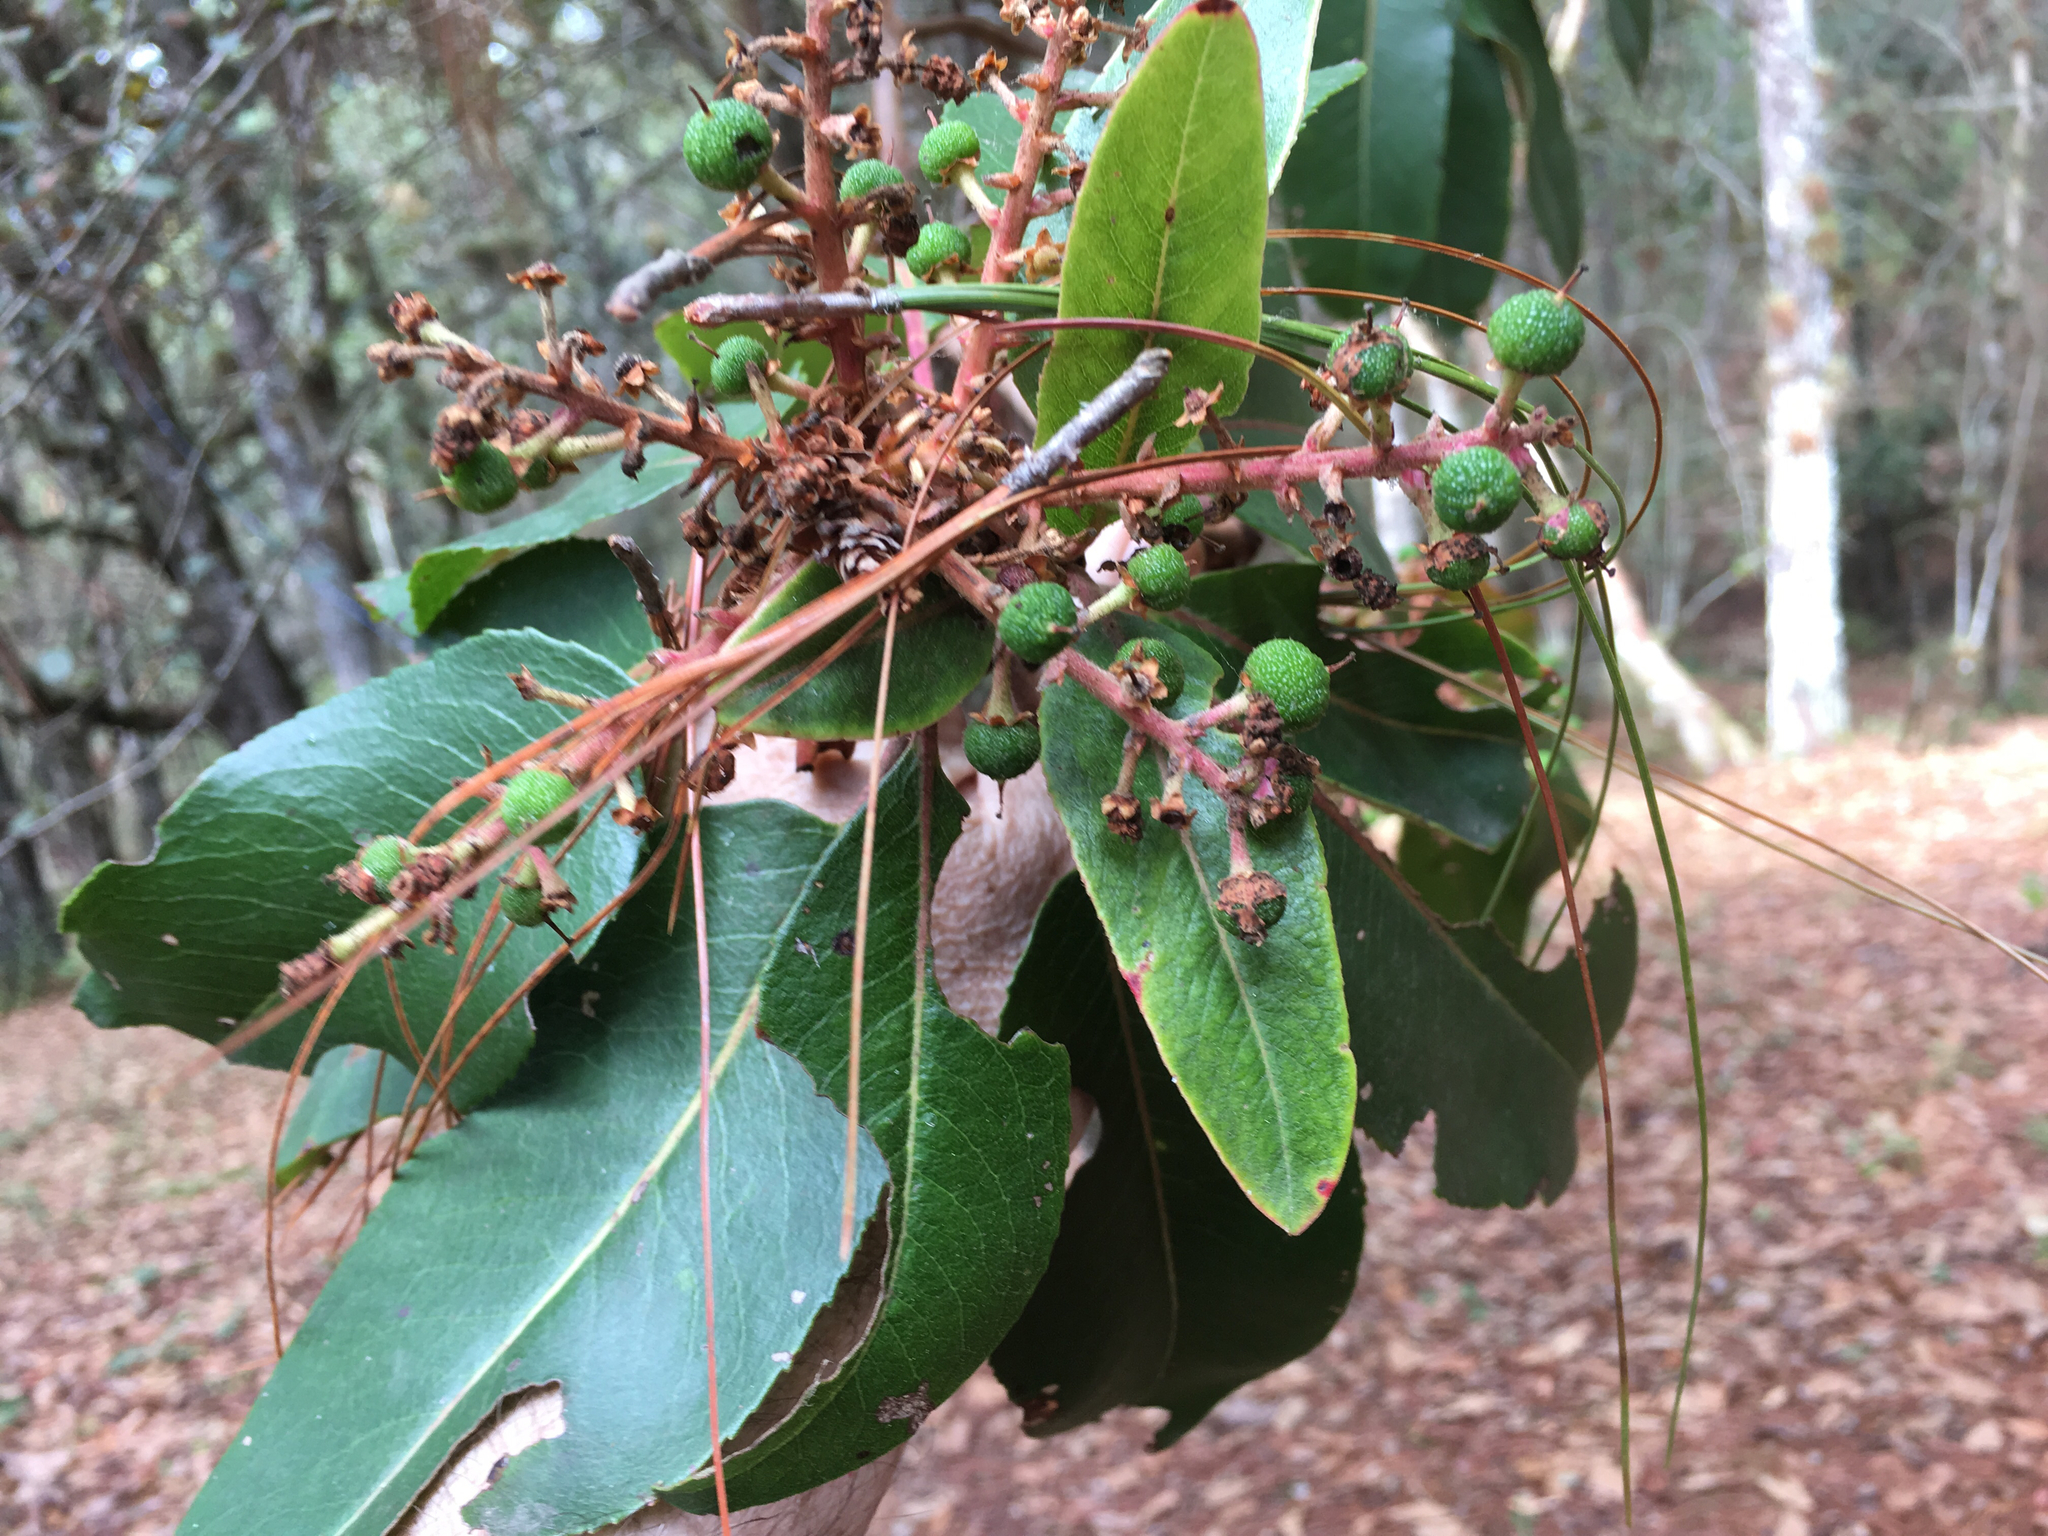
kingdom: Plantae
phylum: Tracheophyta
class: Magnoliopsida
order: Ericales
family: Ericaceae
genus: Arbutus
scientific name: Arbutus xalapensis
